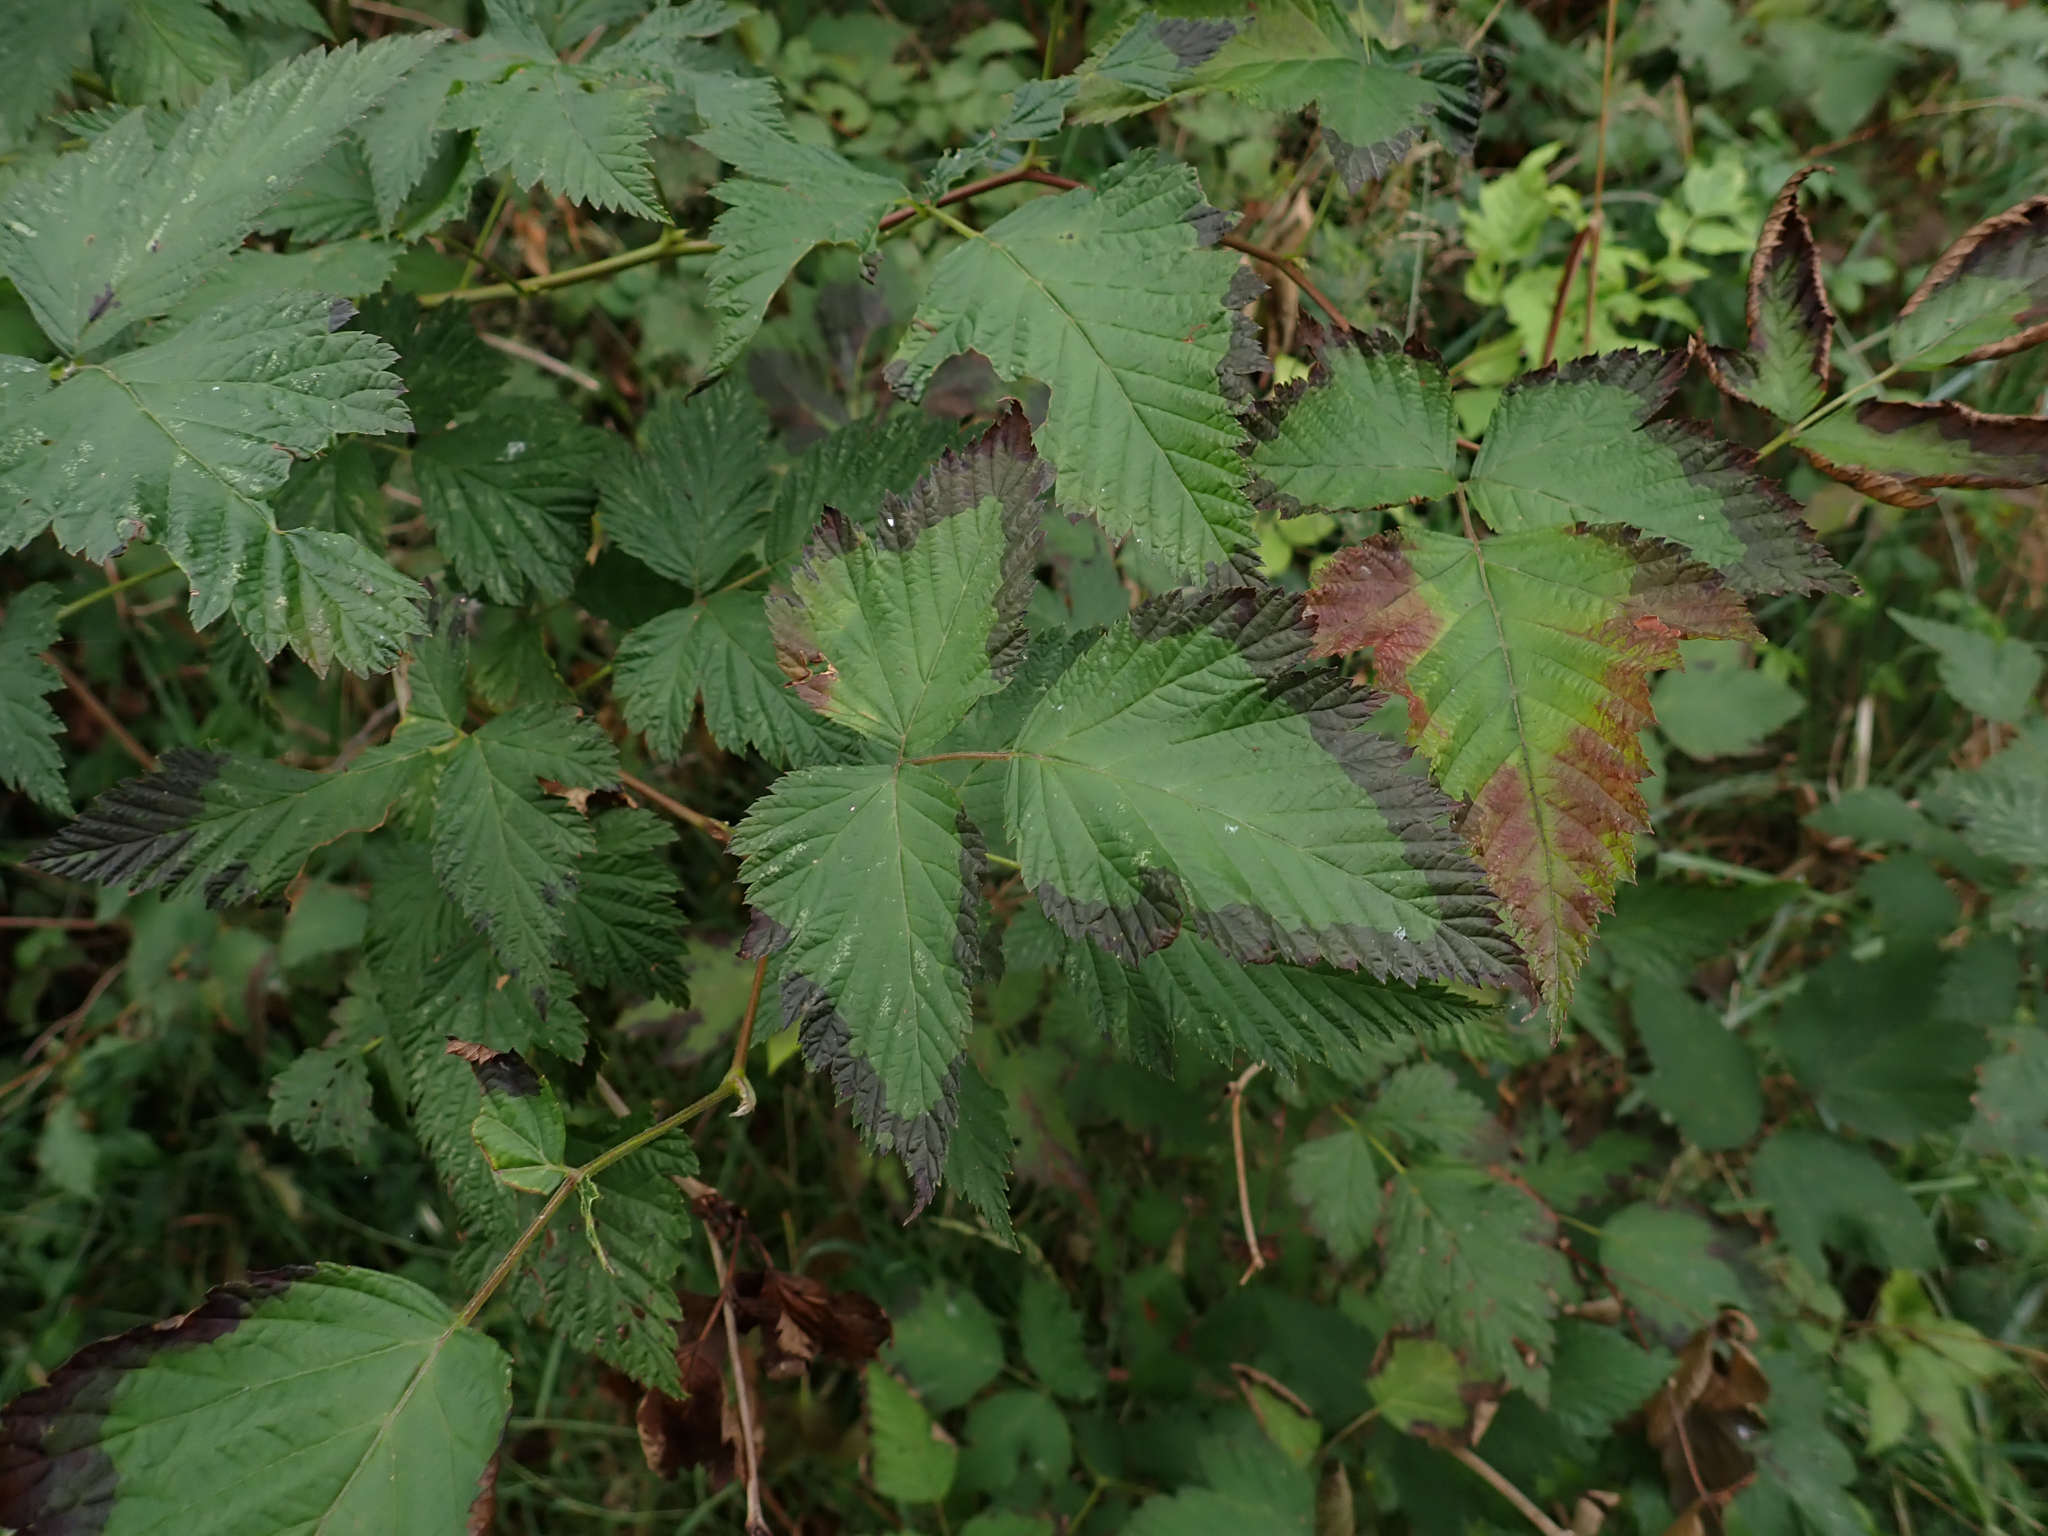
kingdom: Plantae
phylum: Tracheophyta
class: Magnoliopsida
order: Rosales
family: Rosaceae
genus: Rubus
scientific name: Rubus spectabilis
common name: Salmonberry
